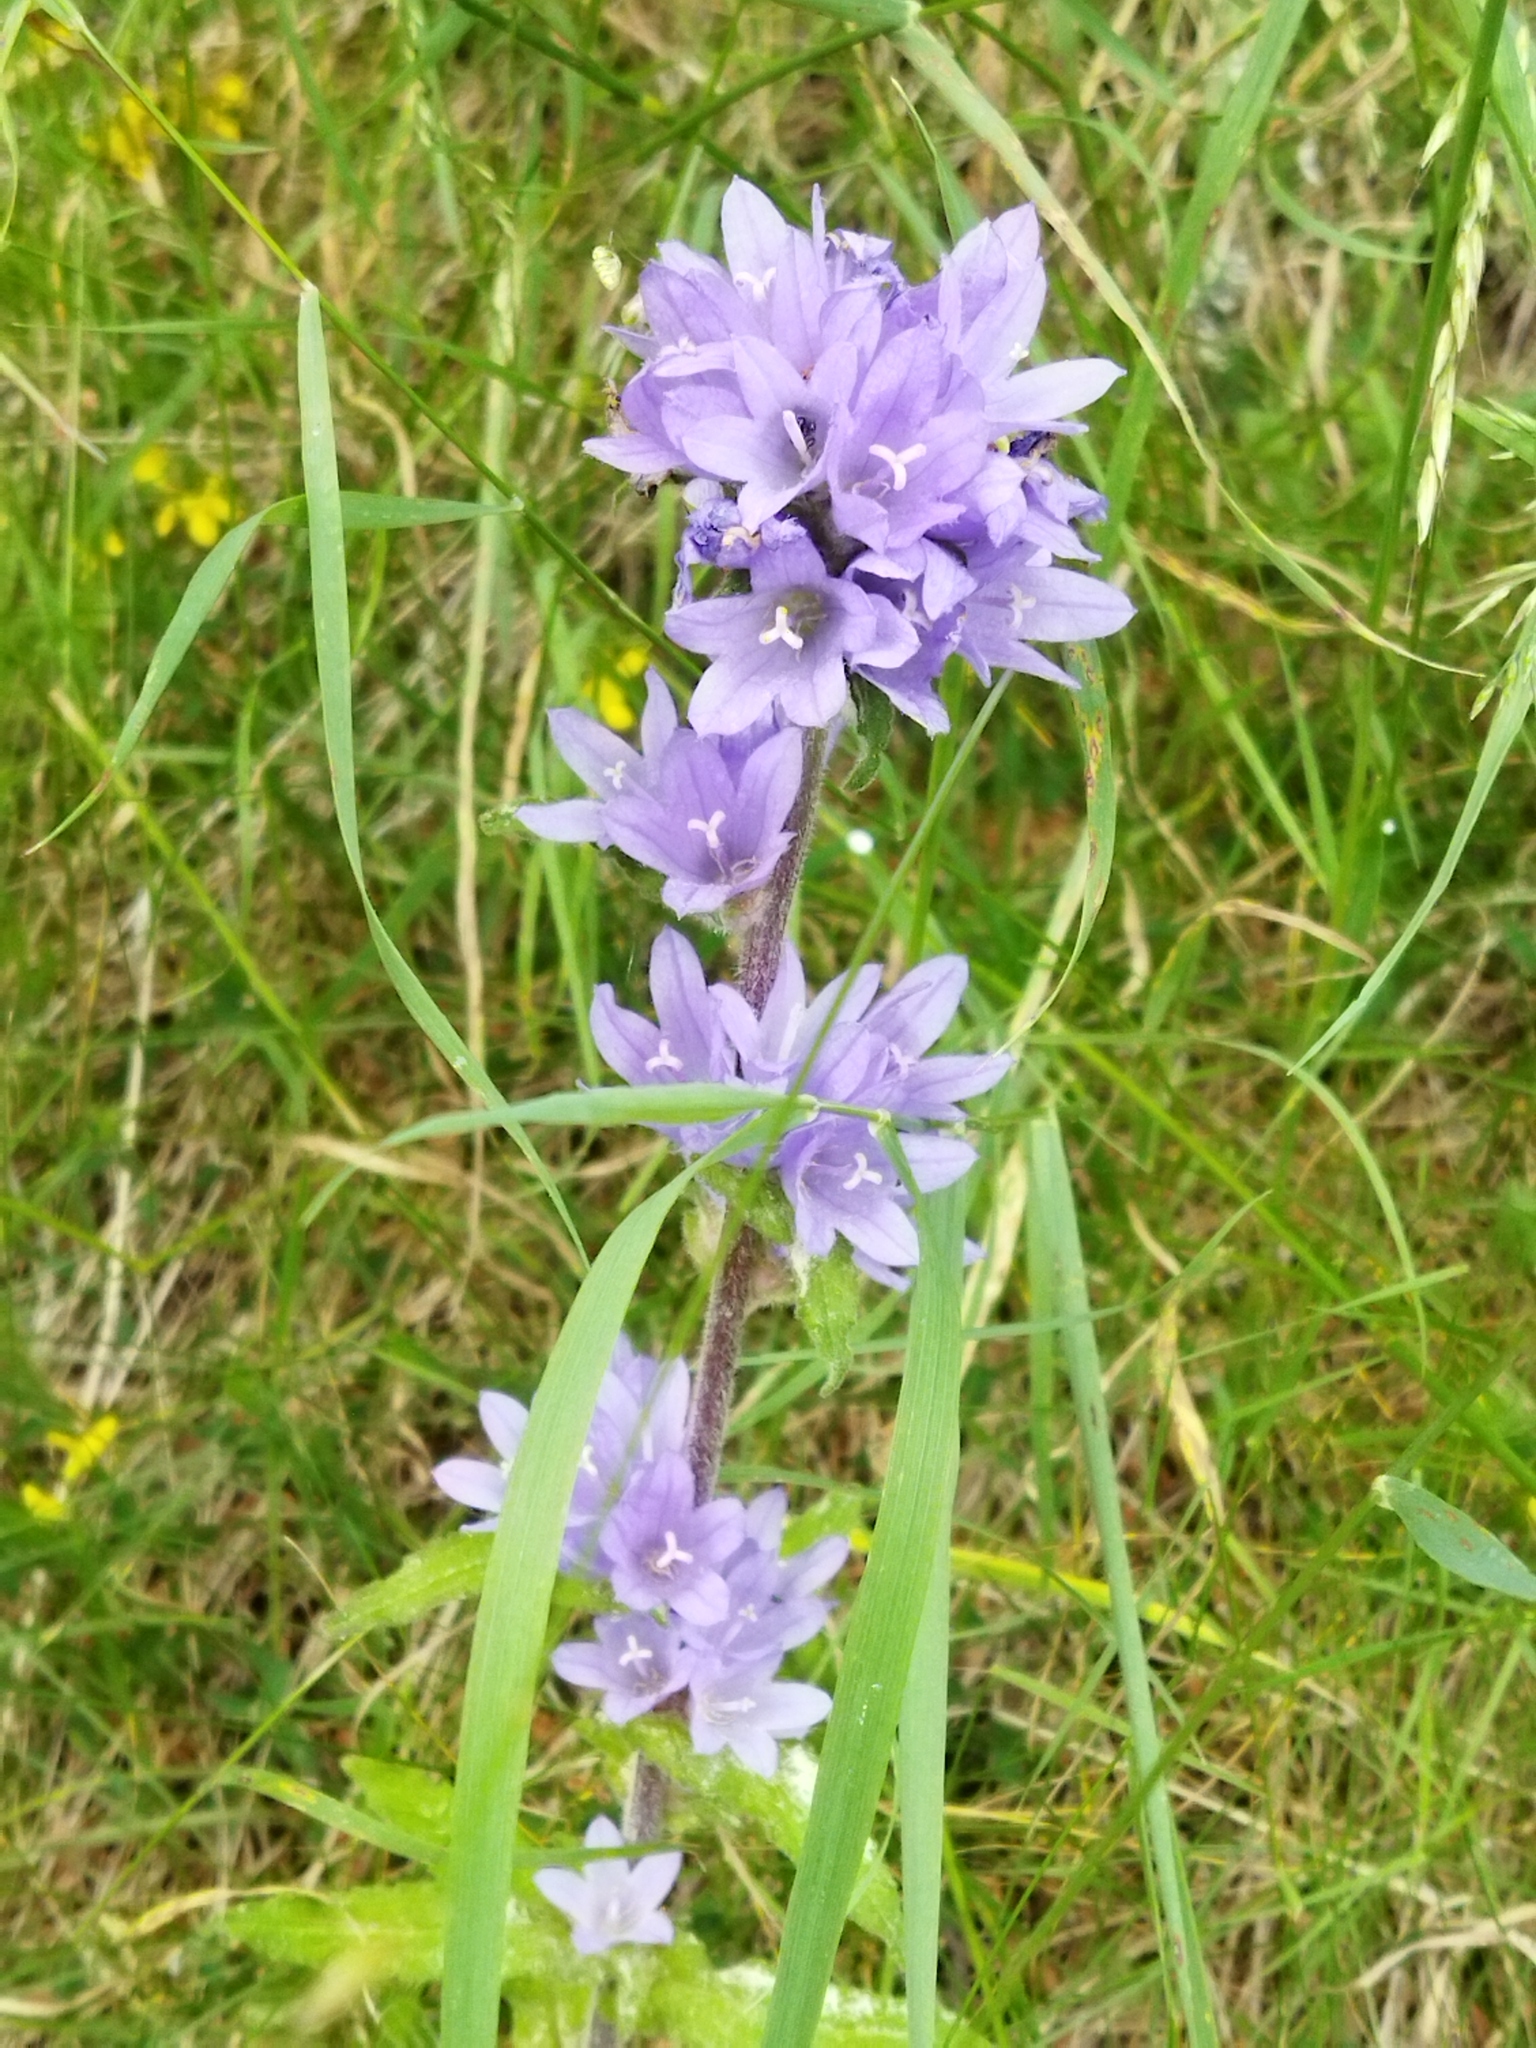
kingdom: Plantae
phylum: Tracheophyta
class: Magnoliopsida
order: Asterales
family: Campanulaceae
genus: Campanula
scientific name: Campanula cervicaria
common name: Bristly bellflower
